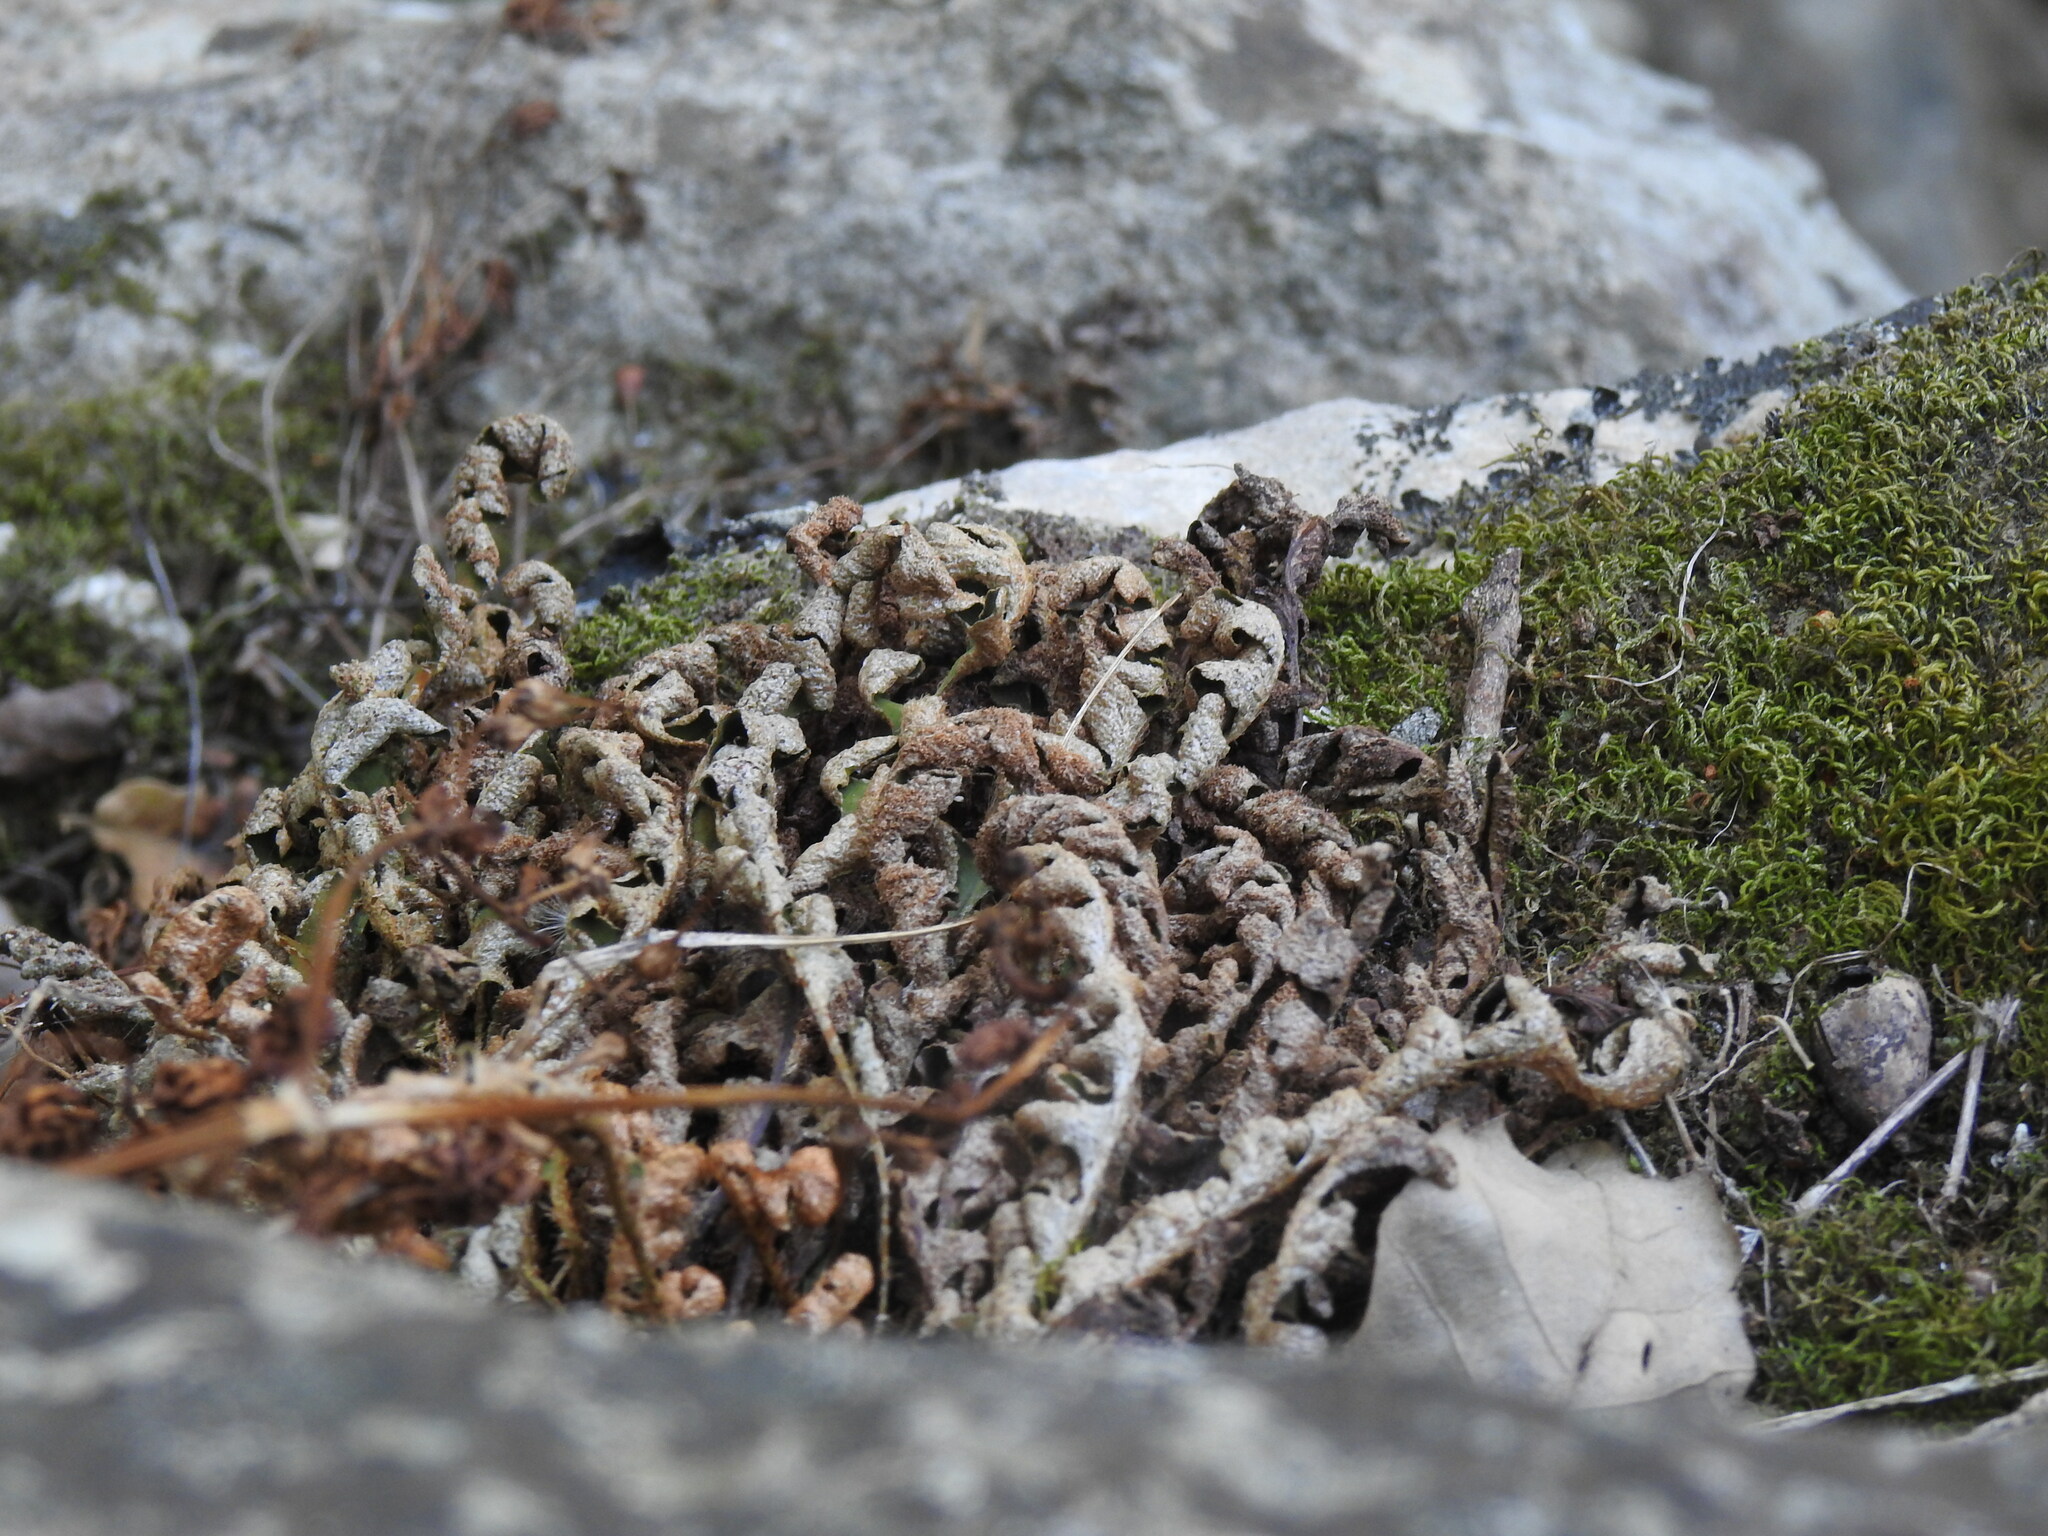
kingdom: Plantae
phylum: Tracheophyta
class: Polypodiopsida
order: Polypodiales
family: Aspleniaceae
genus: Asplenium
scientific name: Asplenium ceterach
